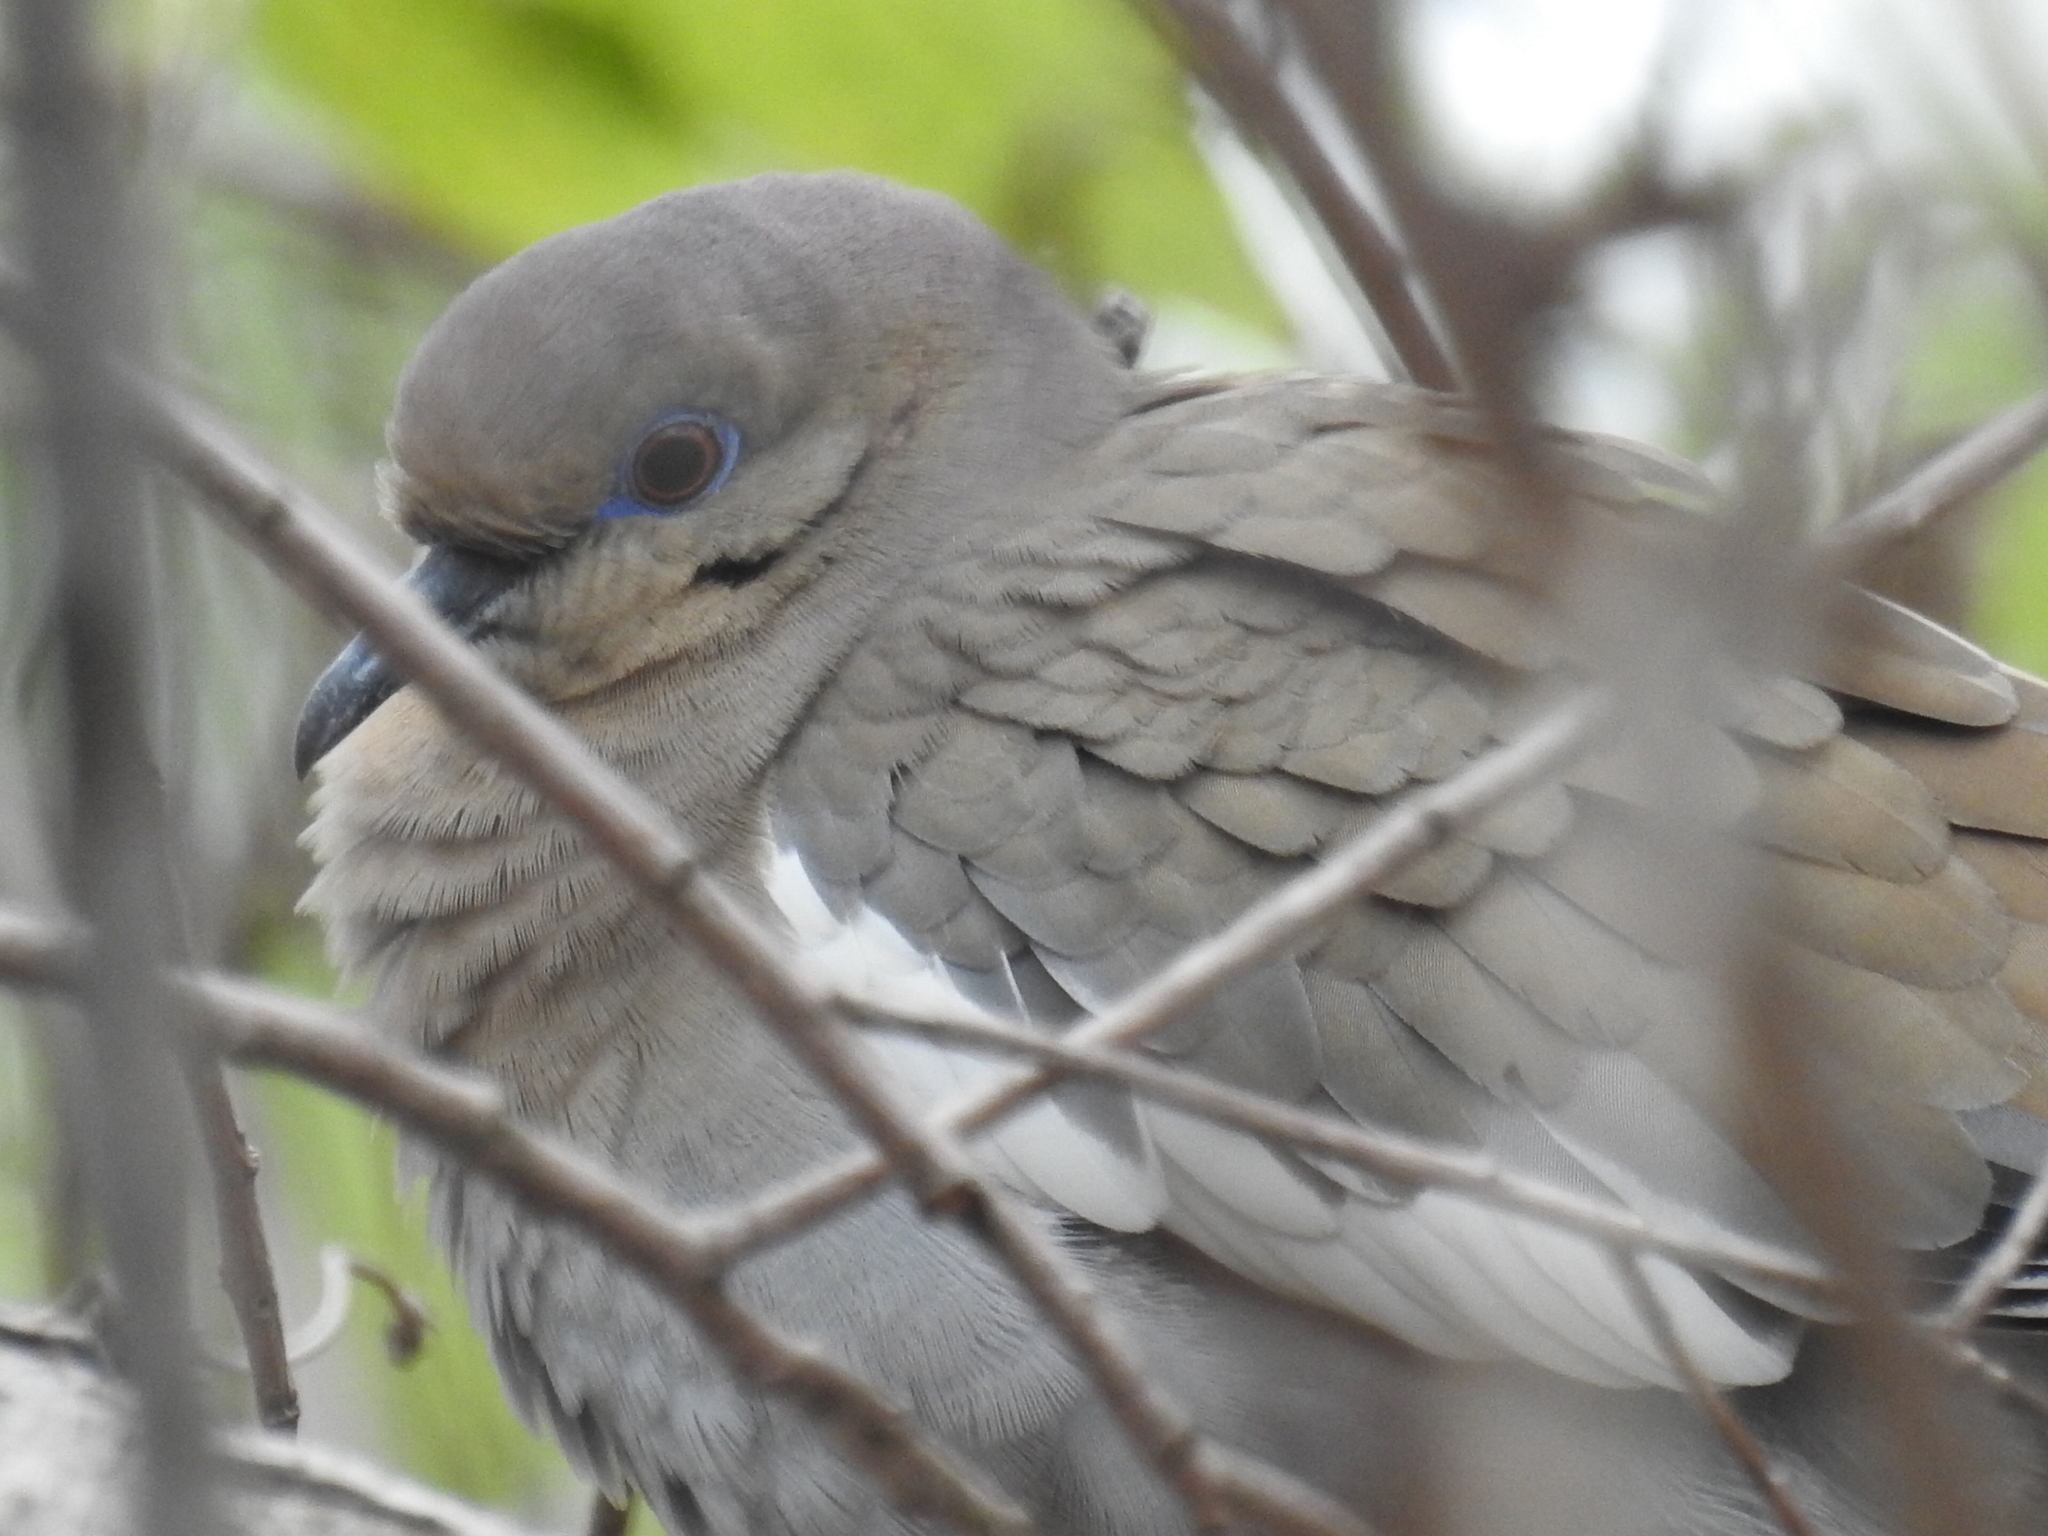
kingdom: Animalia
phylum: Chordata
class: Aves
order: Columbiformes
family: Columbidae
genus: Zenaida
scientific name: Zenaida asiatica
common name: White-winged dove
